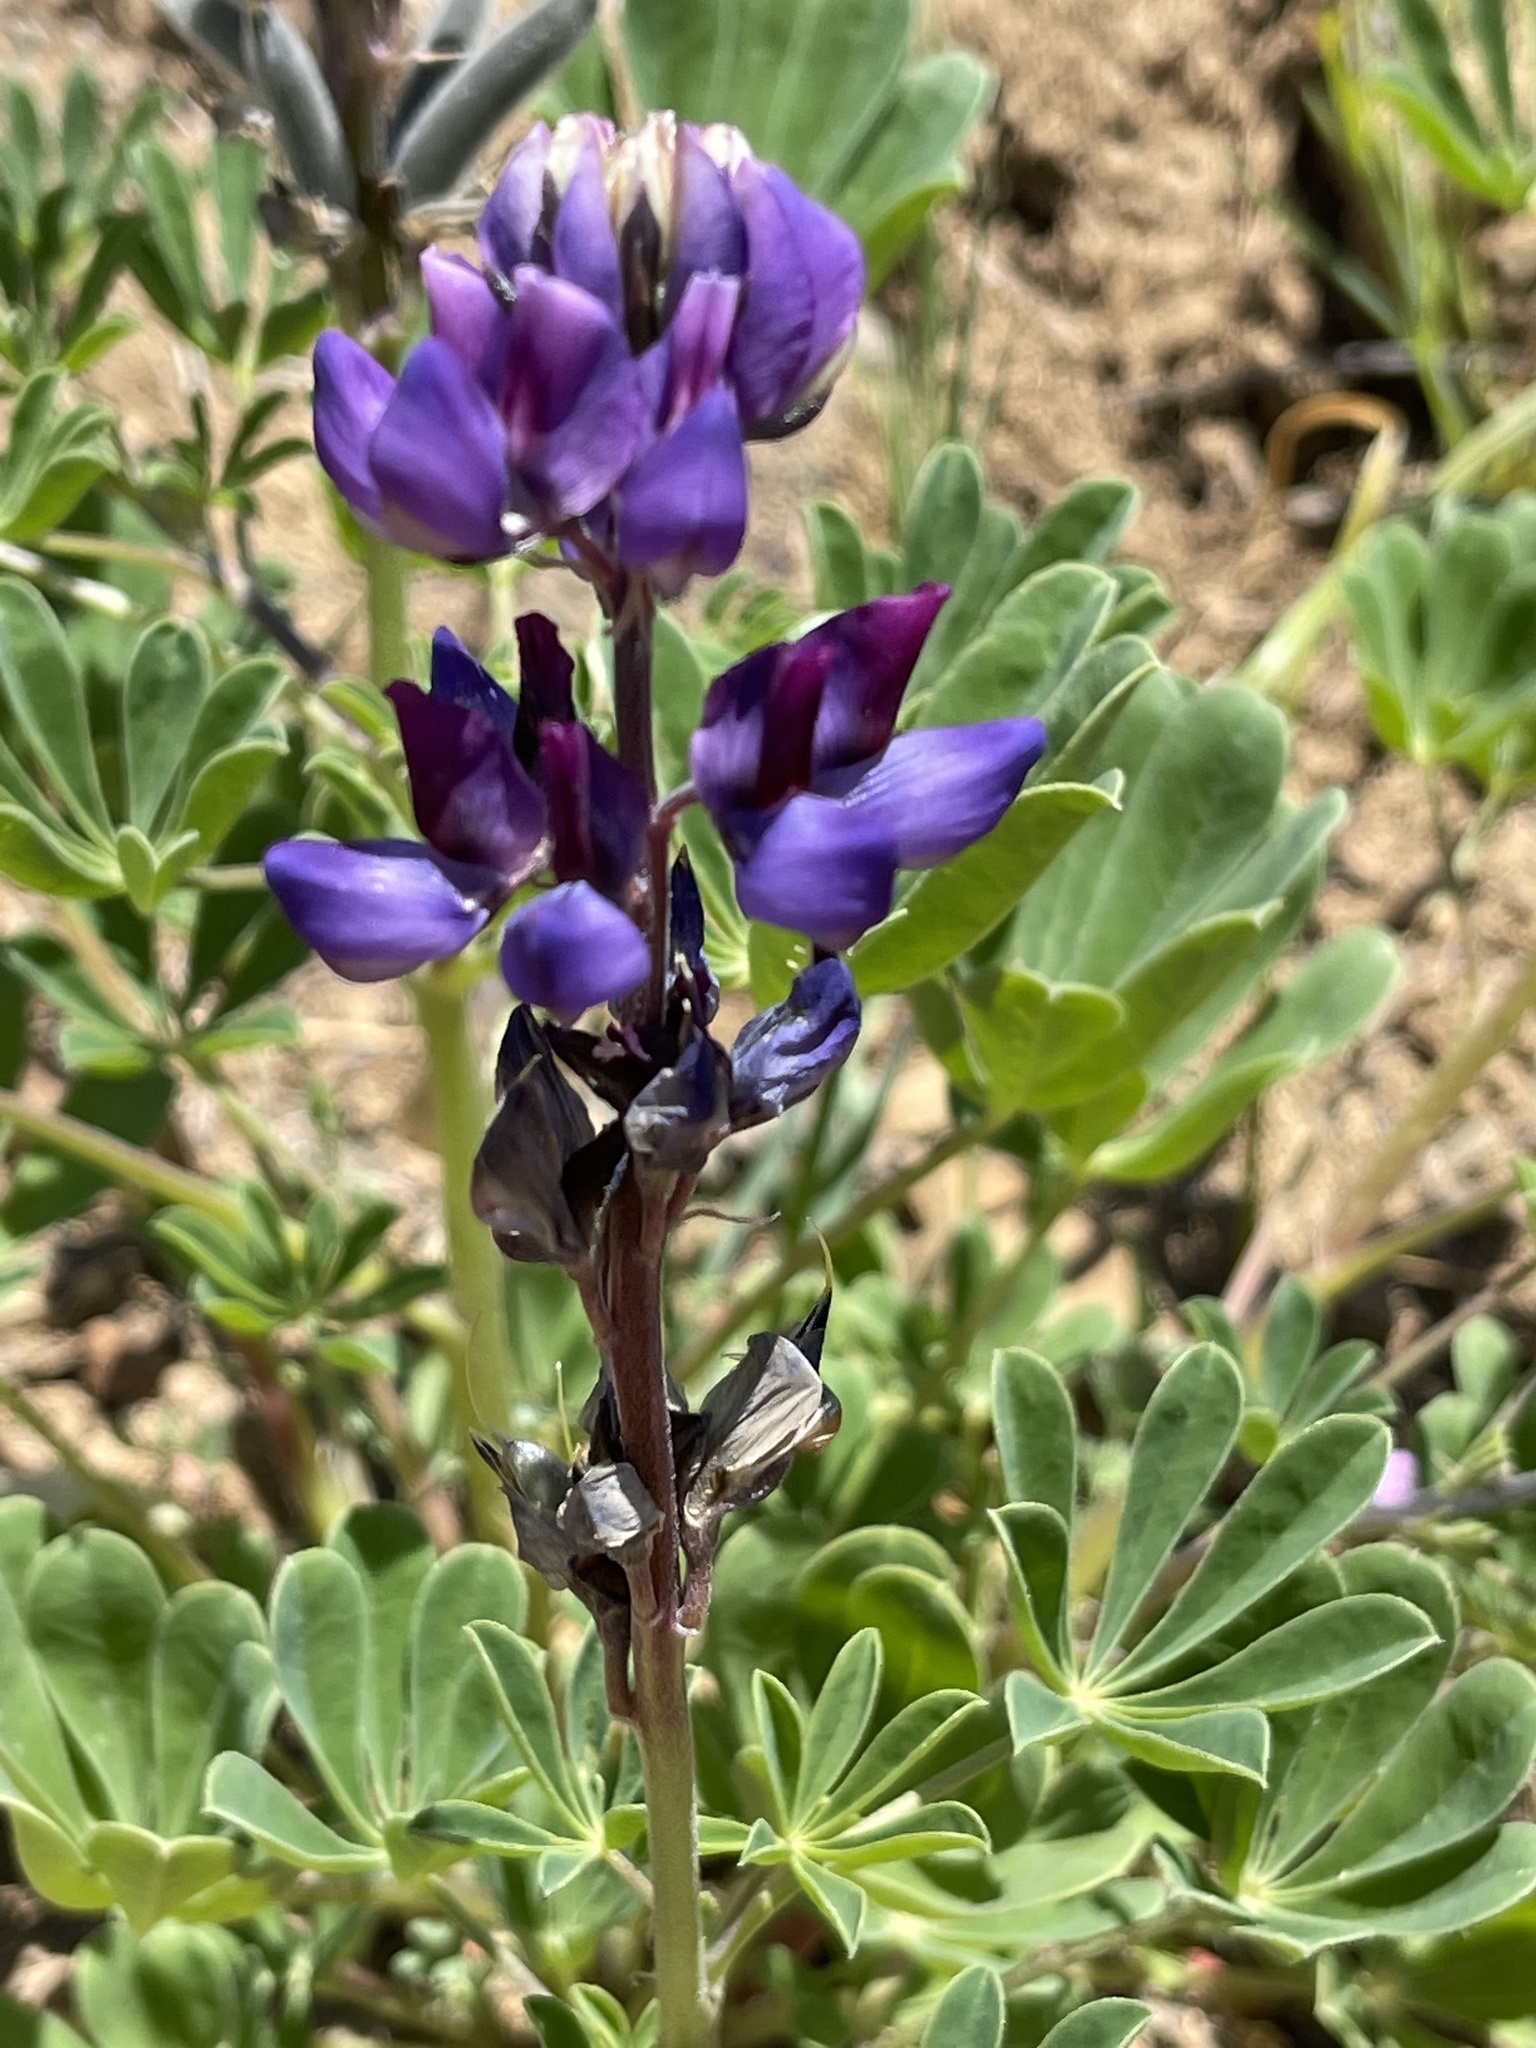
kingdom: Plantae
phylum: Tracheophyta
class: Magnoliopsida
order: Fabales
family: Fabaceae
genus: Lupinus
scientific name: Lupinus succulentus
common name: Arroyo lupine
